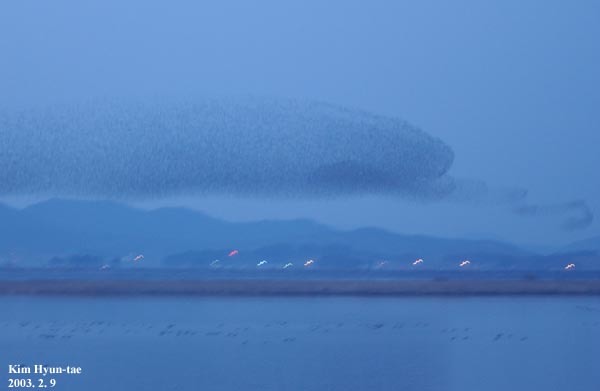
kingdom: Animalia
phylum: Chordata
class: Aves
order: Anseriformes
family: Anatidae
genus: Sibirionetta
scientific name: Sibirionetta formosa
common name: Baikal teal
